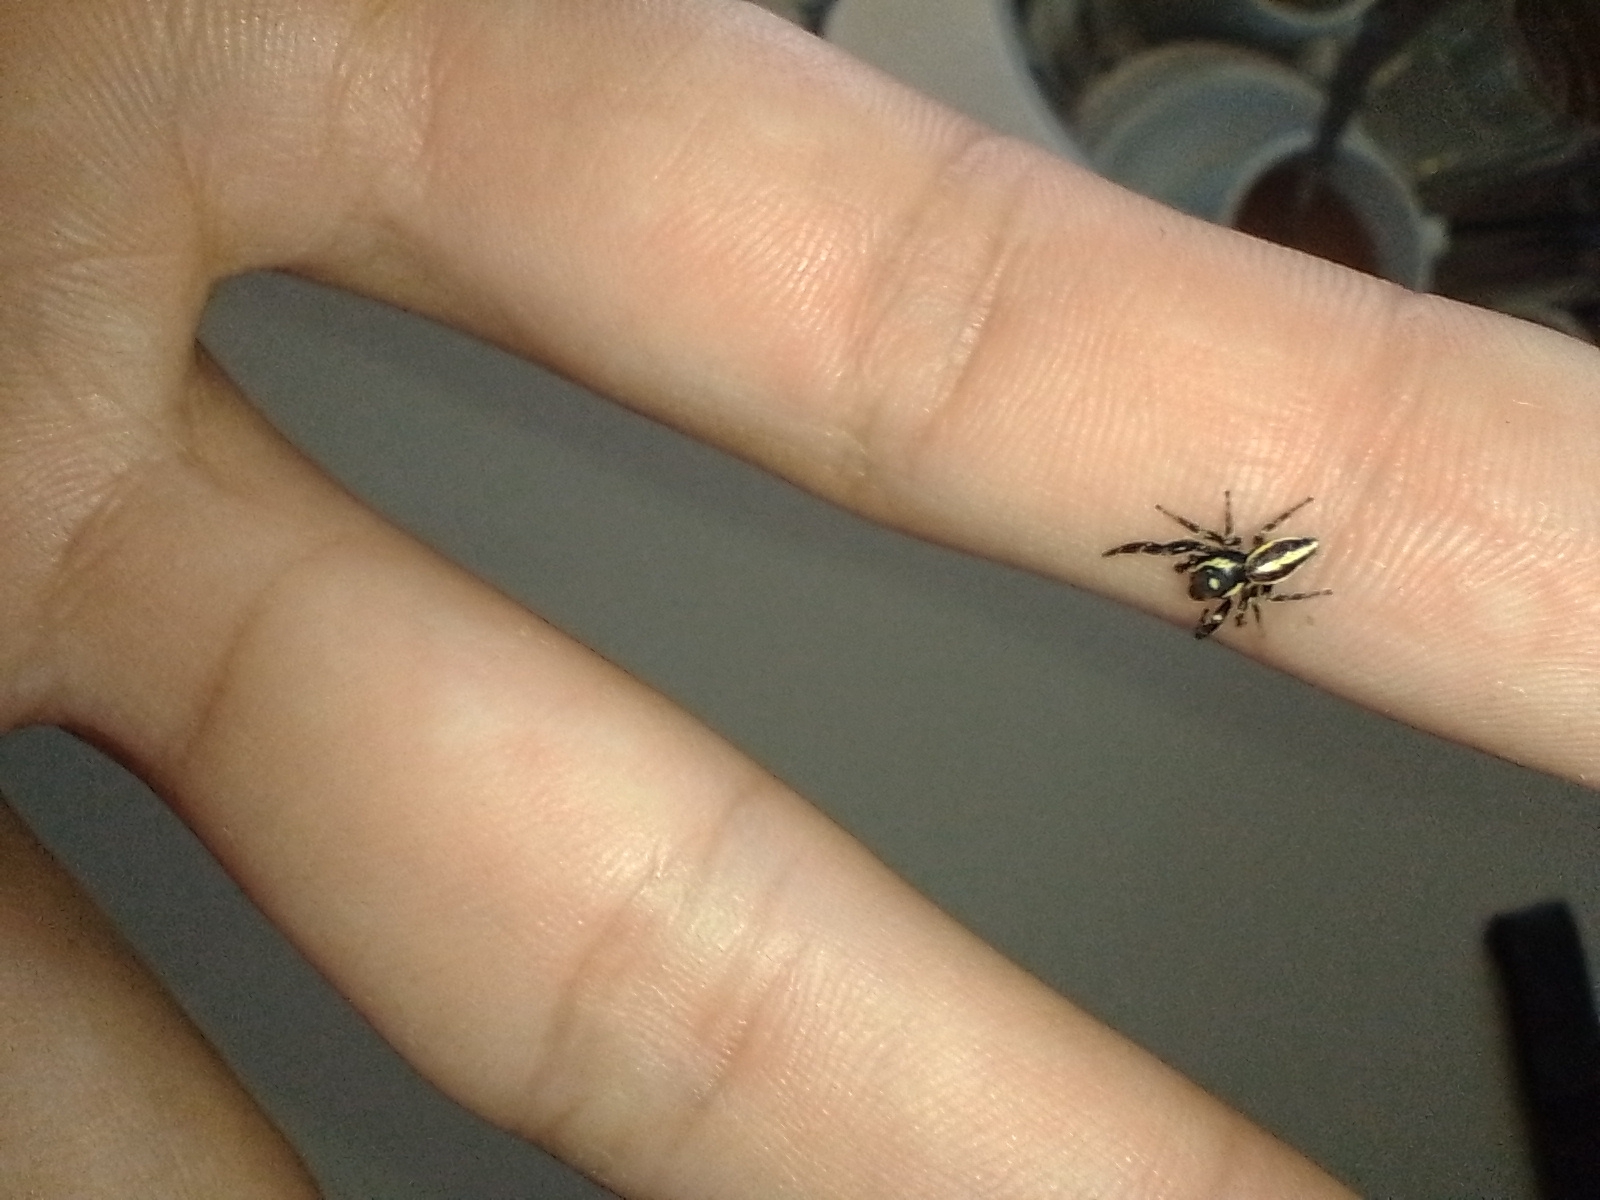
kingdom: Animalia
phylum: Arthropoda
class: Arachnida
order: Araneae
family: Salticidae
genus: Dendryphantes
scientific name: Dendryphantes mordax
